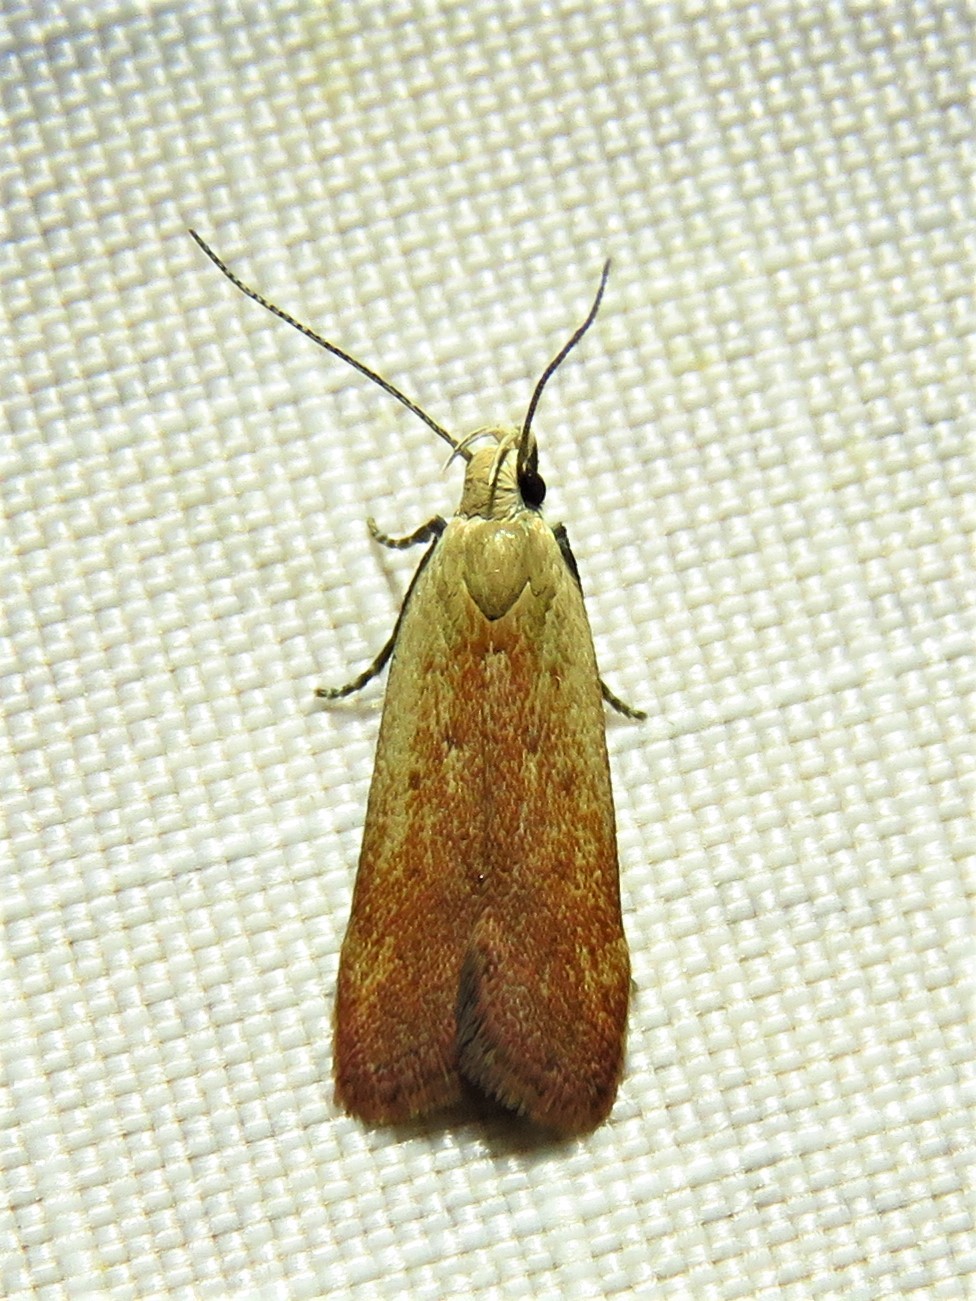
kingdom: Animalia
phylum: Arthropoda
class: Insecta
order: Lepidoptera
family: Gelechiidae
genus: Anacampsis
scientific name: Anacampsis fullonella
